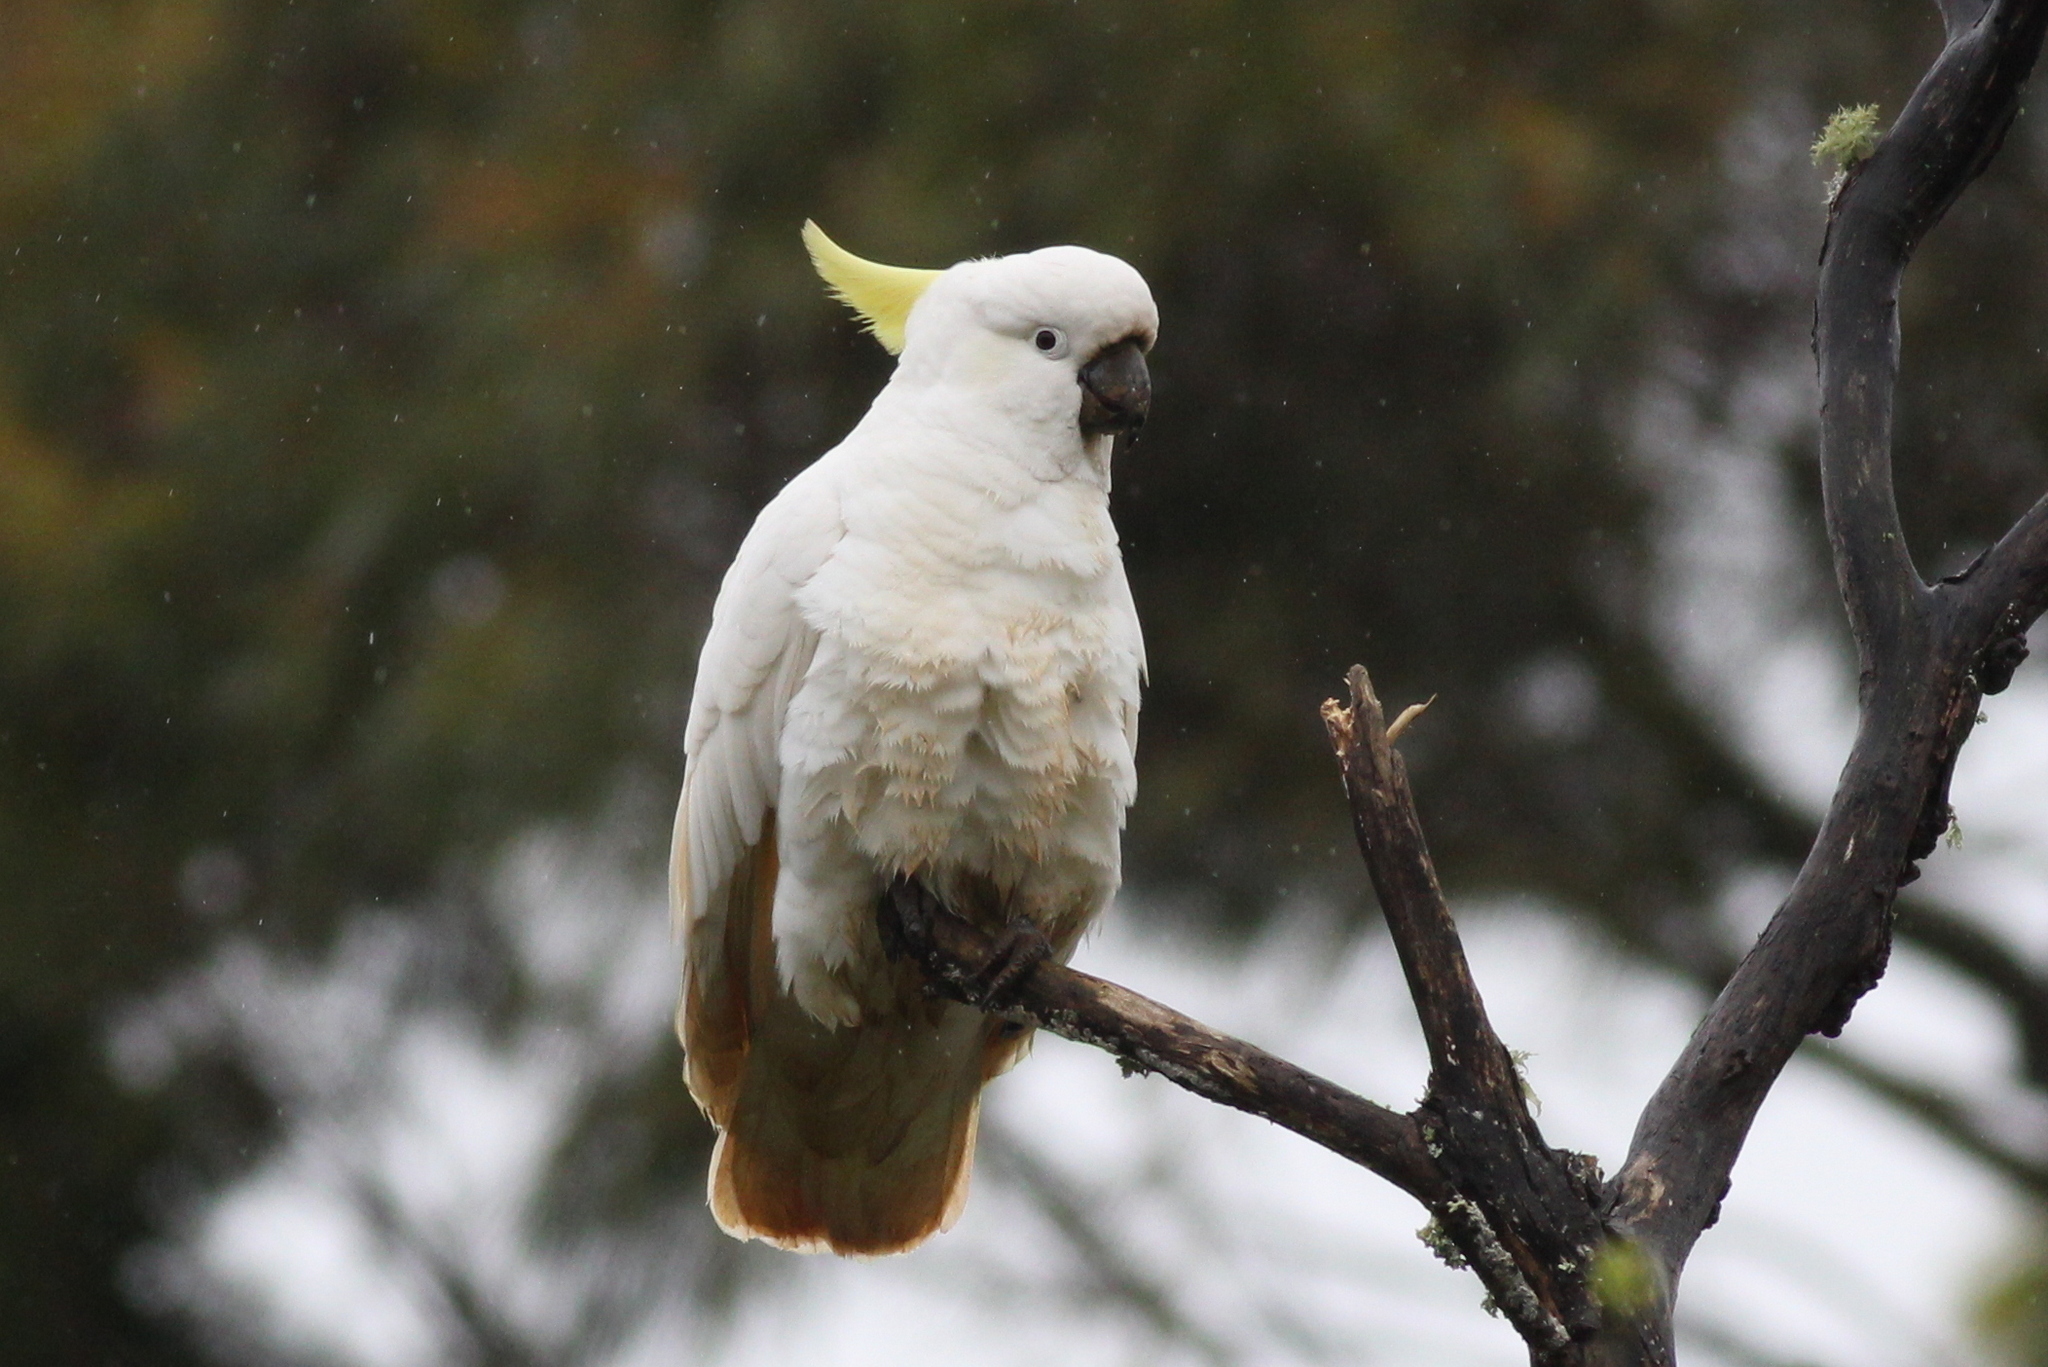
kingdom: Animalia
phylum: Chordata
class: Aves
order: Psittaciformes
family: Psittacidae
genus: Cacatua
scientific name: Cacatua galerita
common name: Sulphur-crested cockatoo
